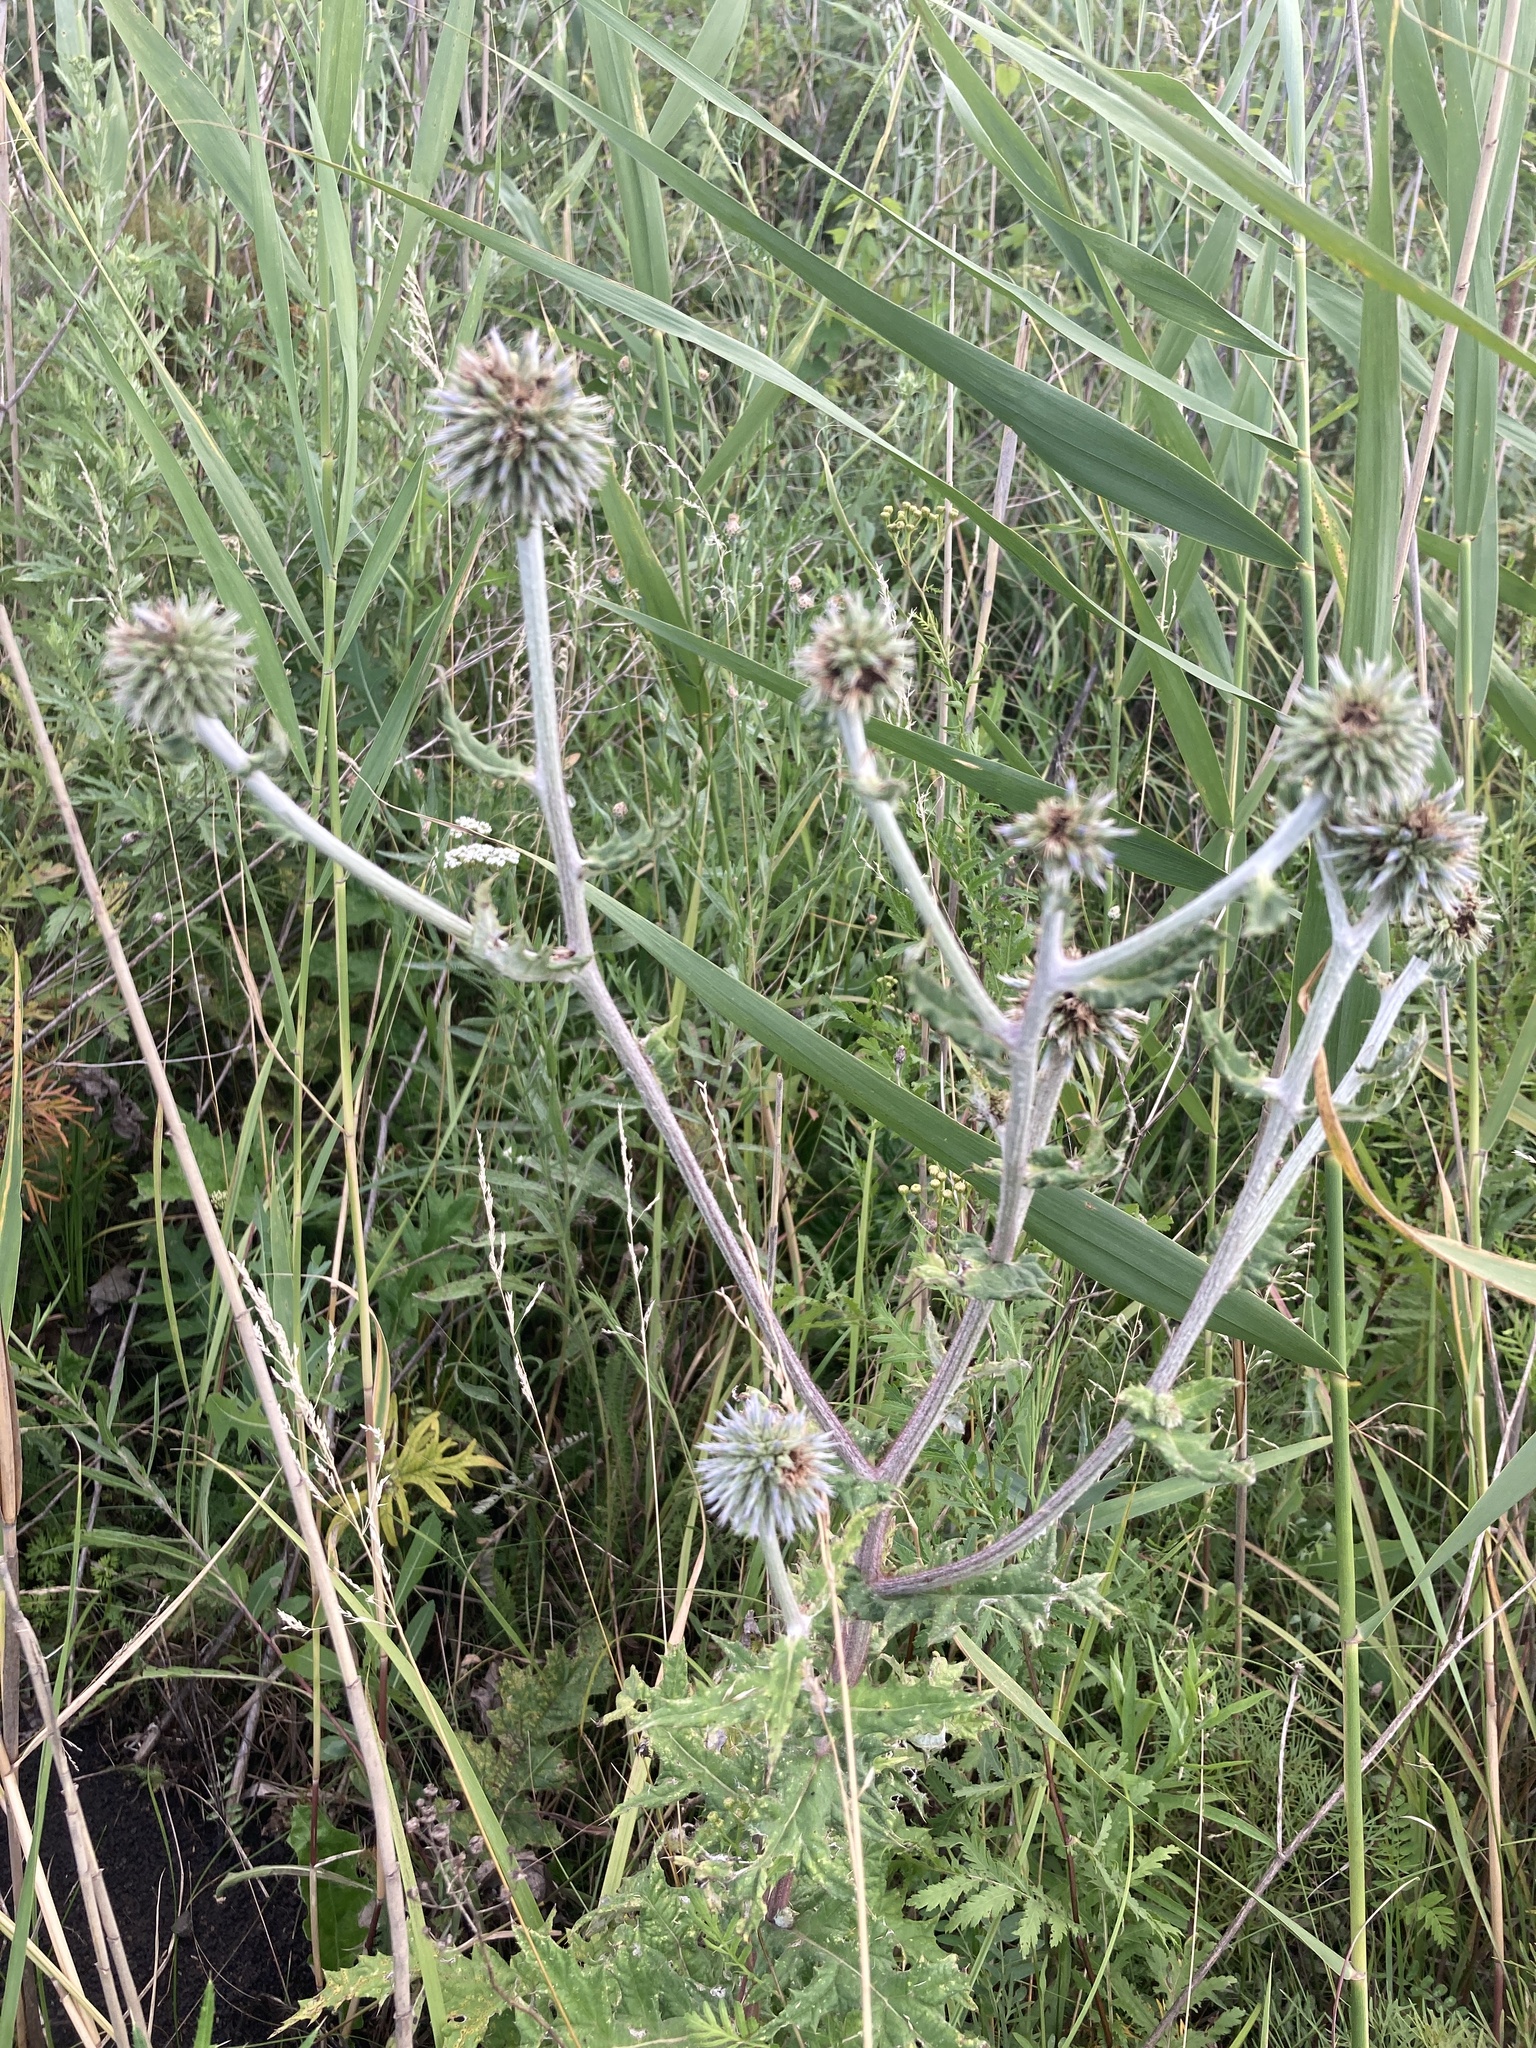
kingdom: Plantae
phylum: Tracheophyta
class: Magnoliopsida
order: Asterales
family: Asteraceae
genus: Echinops
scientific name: Echinops sphaerocephalus
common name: Glandular globe-thistle
